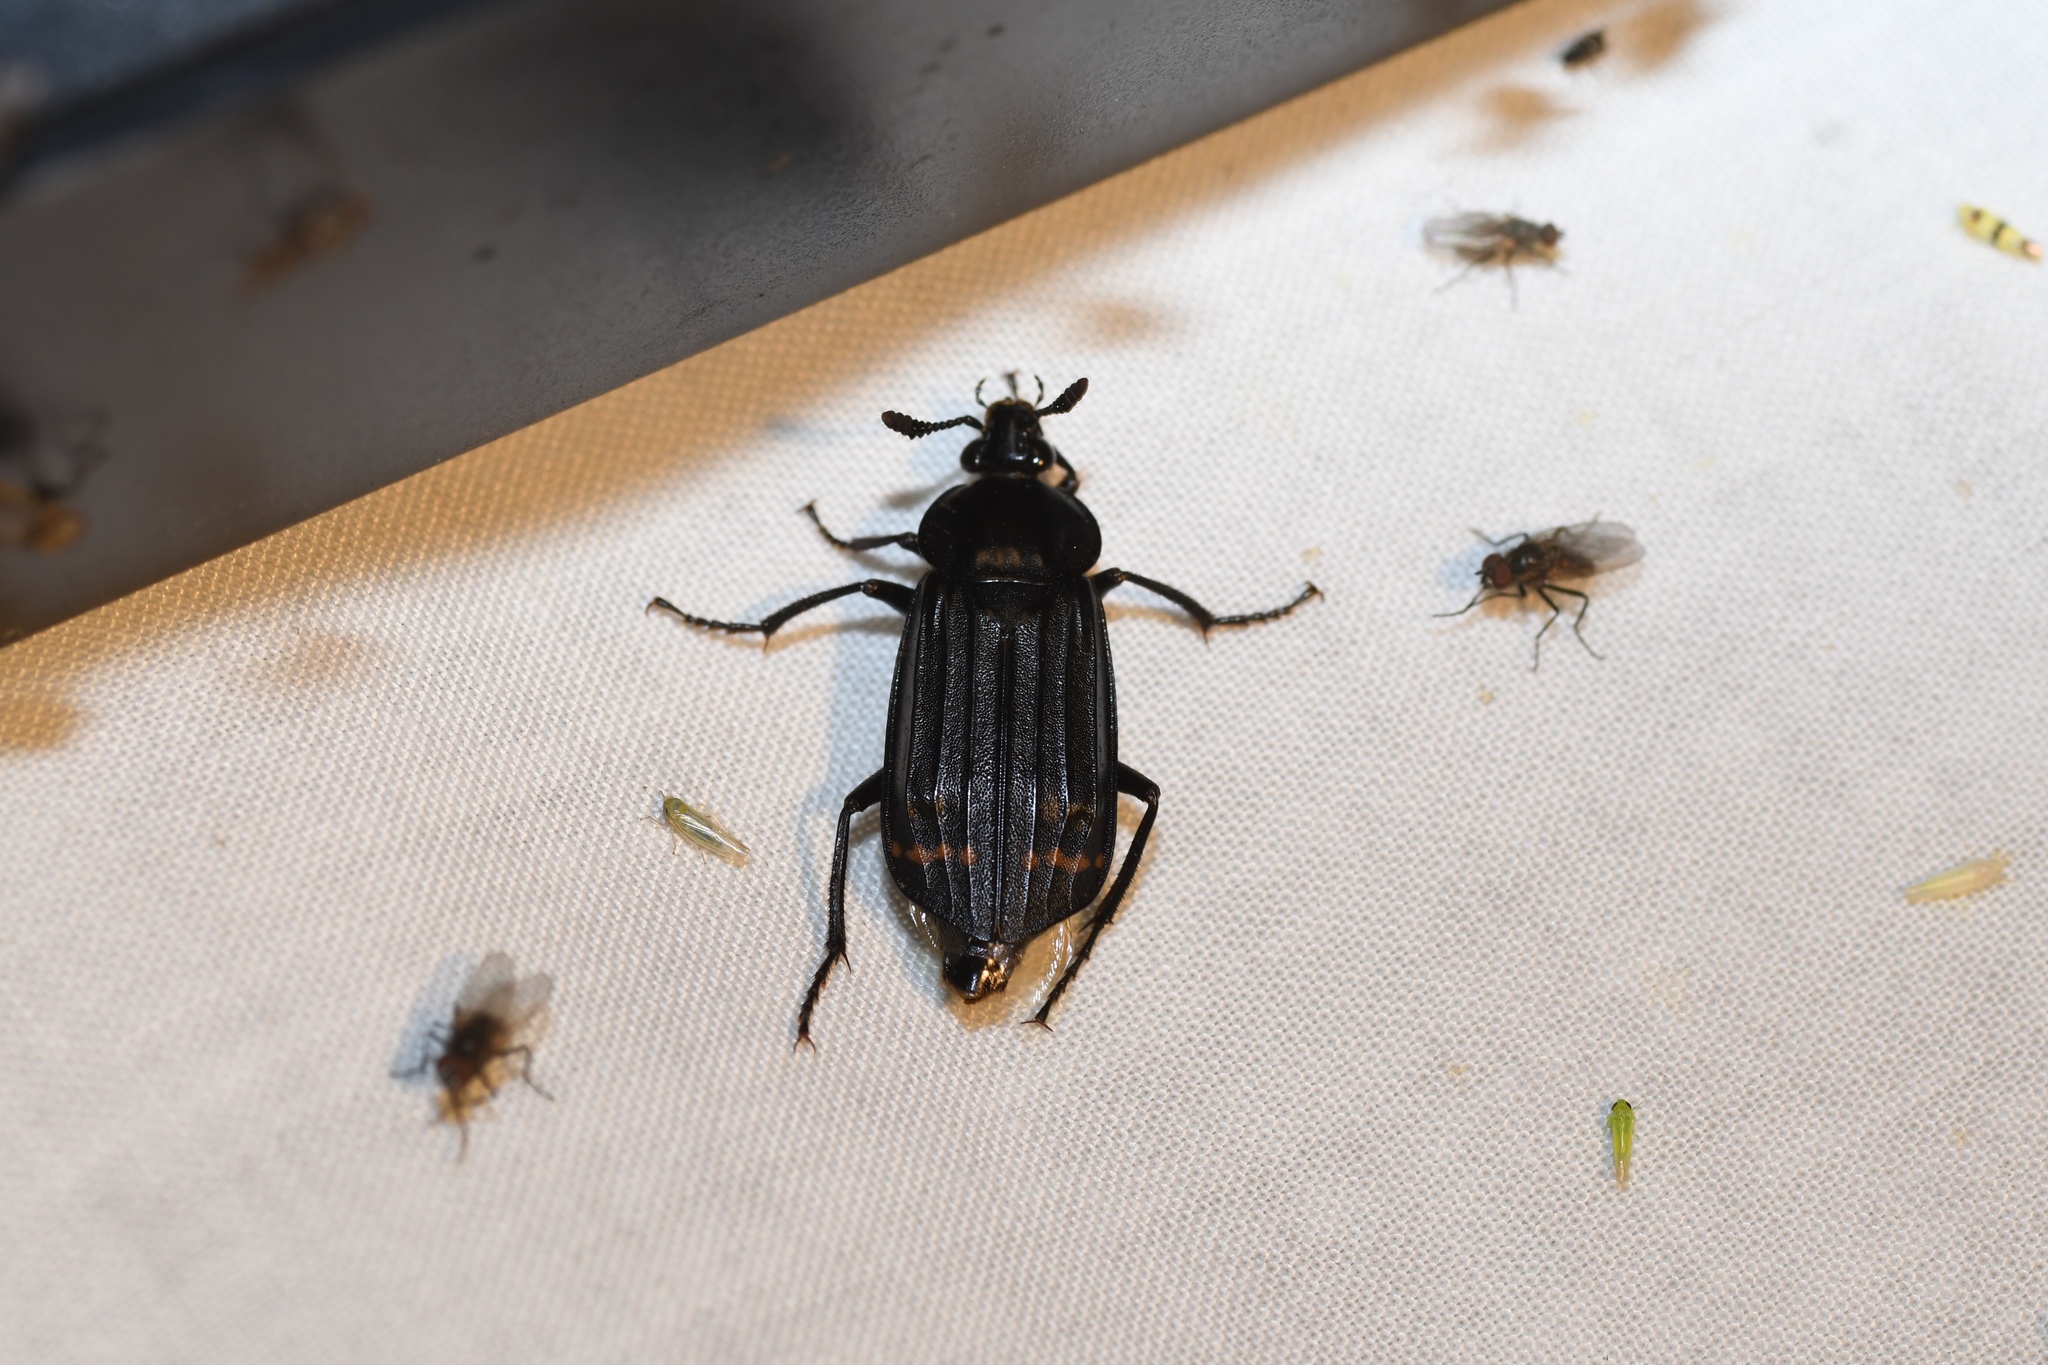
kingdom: Animalia
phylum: Arthropoda
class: Insecta
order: Coleoptera
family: Staphylinidae
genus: Necrodes
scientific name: Necrodes surinamensis
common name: Red-lined carrion beetle
